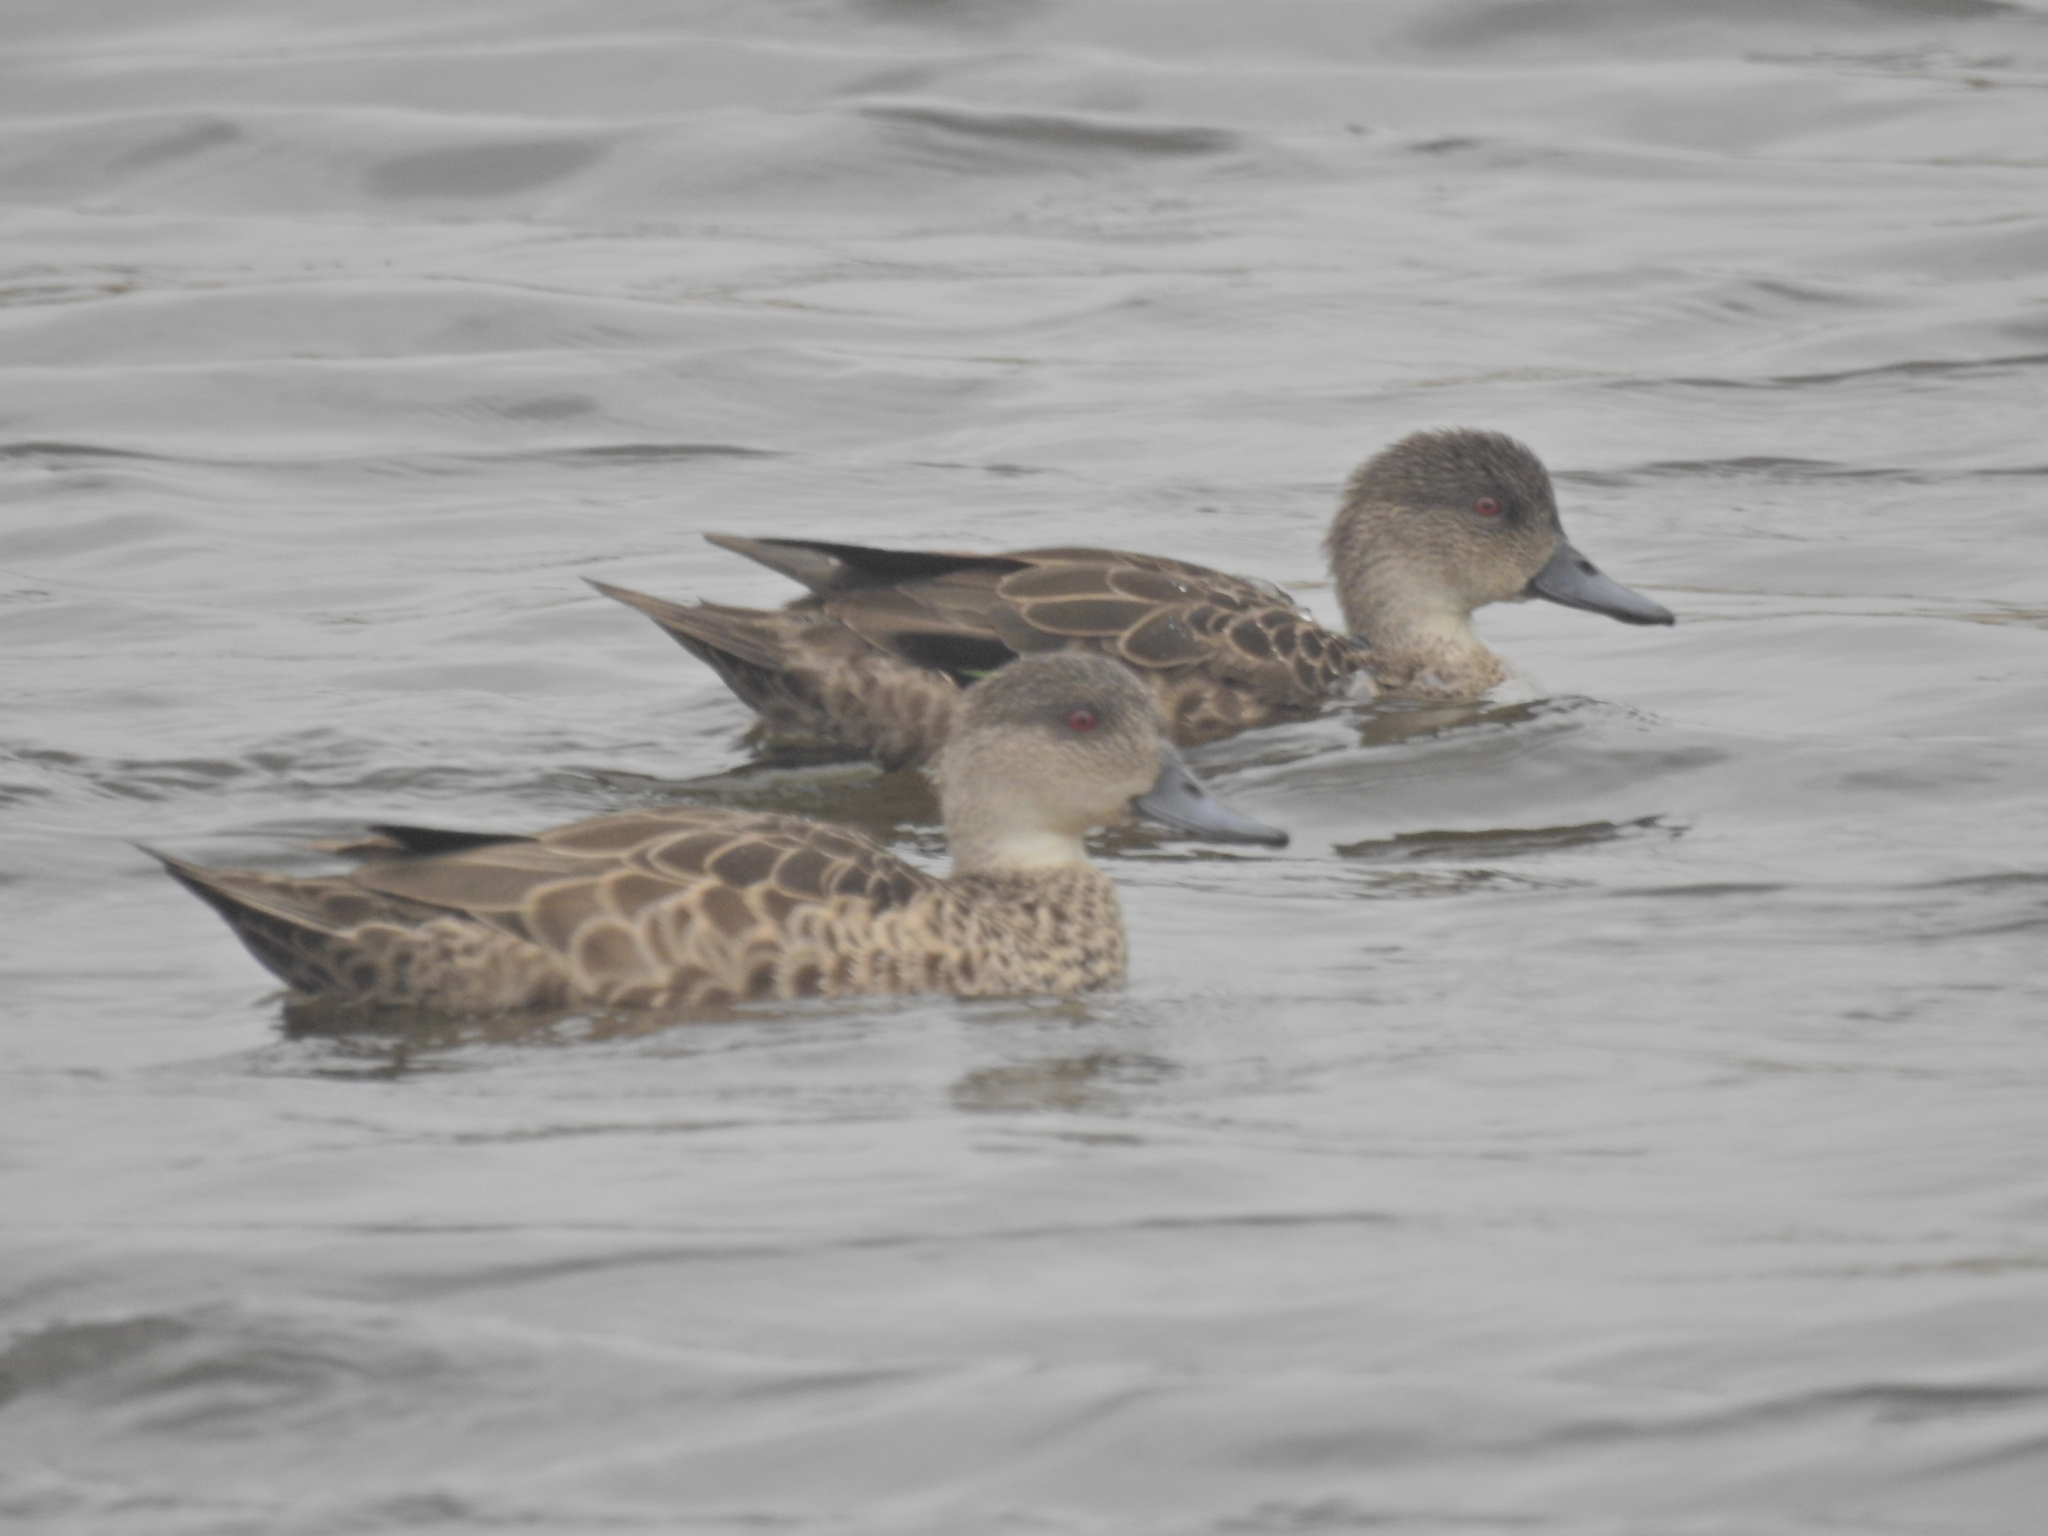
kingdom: Animalia
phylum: Chordata
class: Aves
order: Anseriformes
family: Anatidae
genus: Anas
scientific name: Anas gracilis
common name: Grey teal
